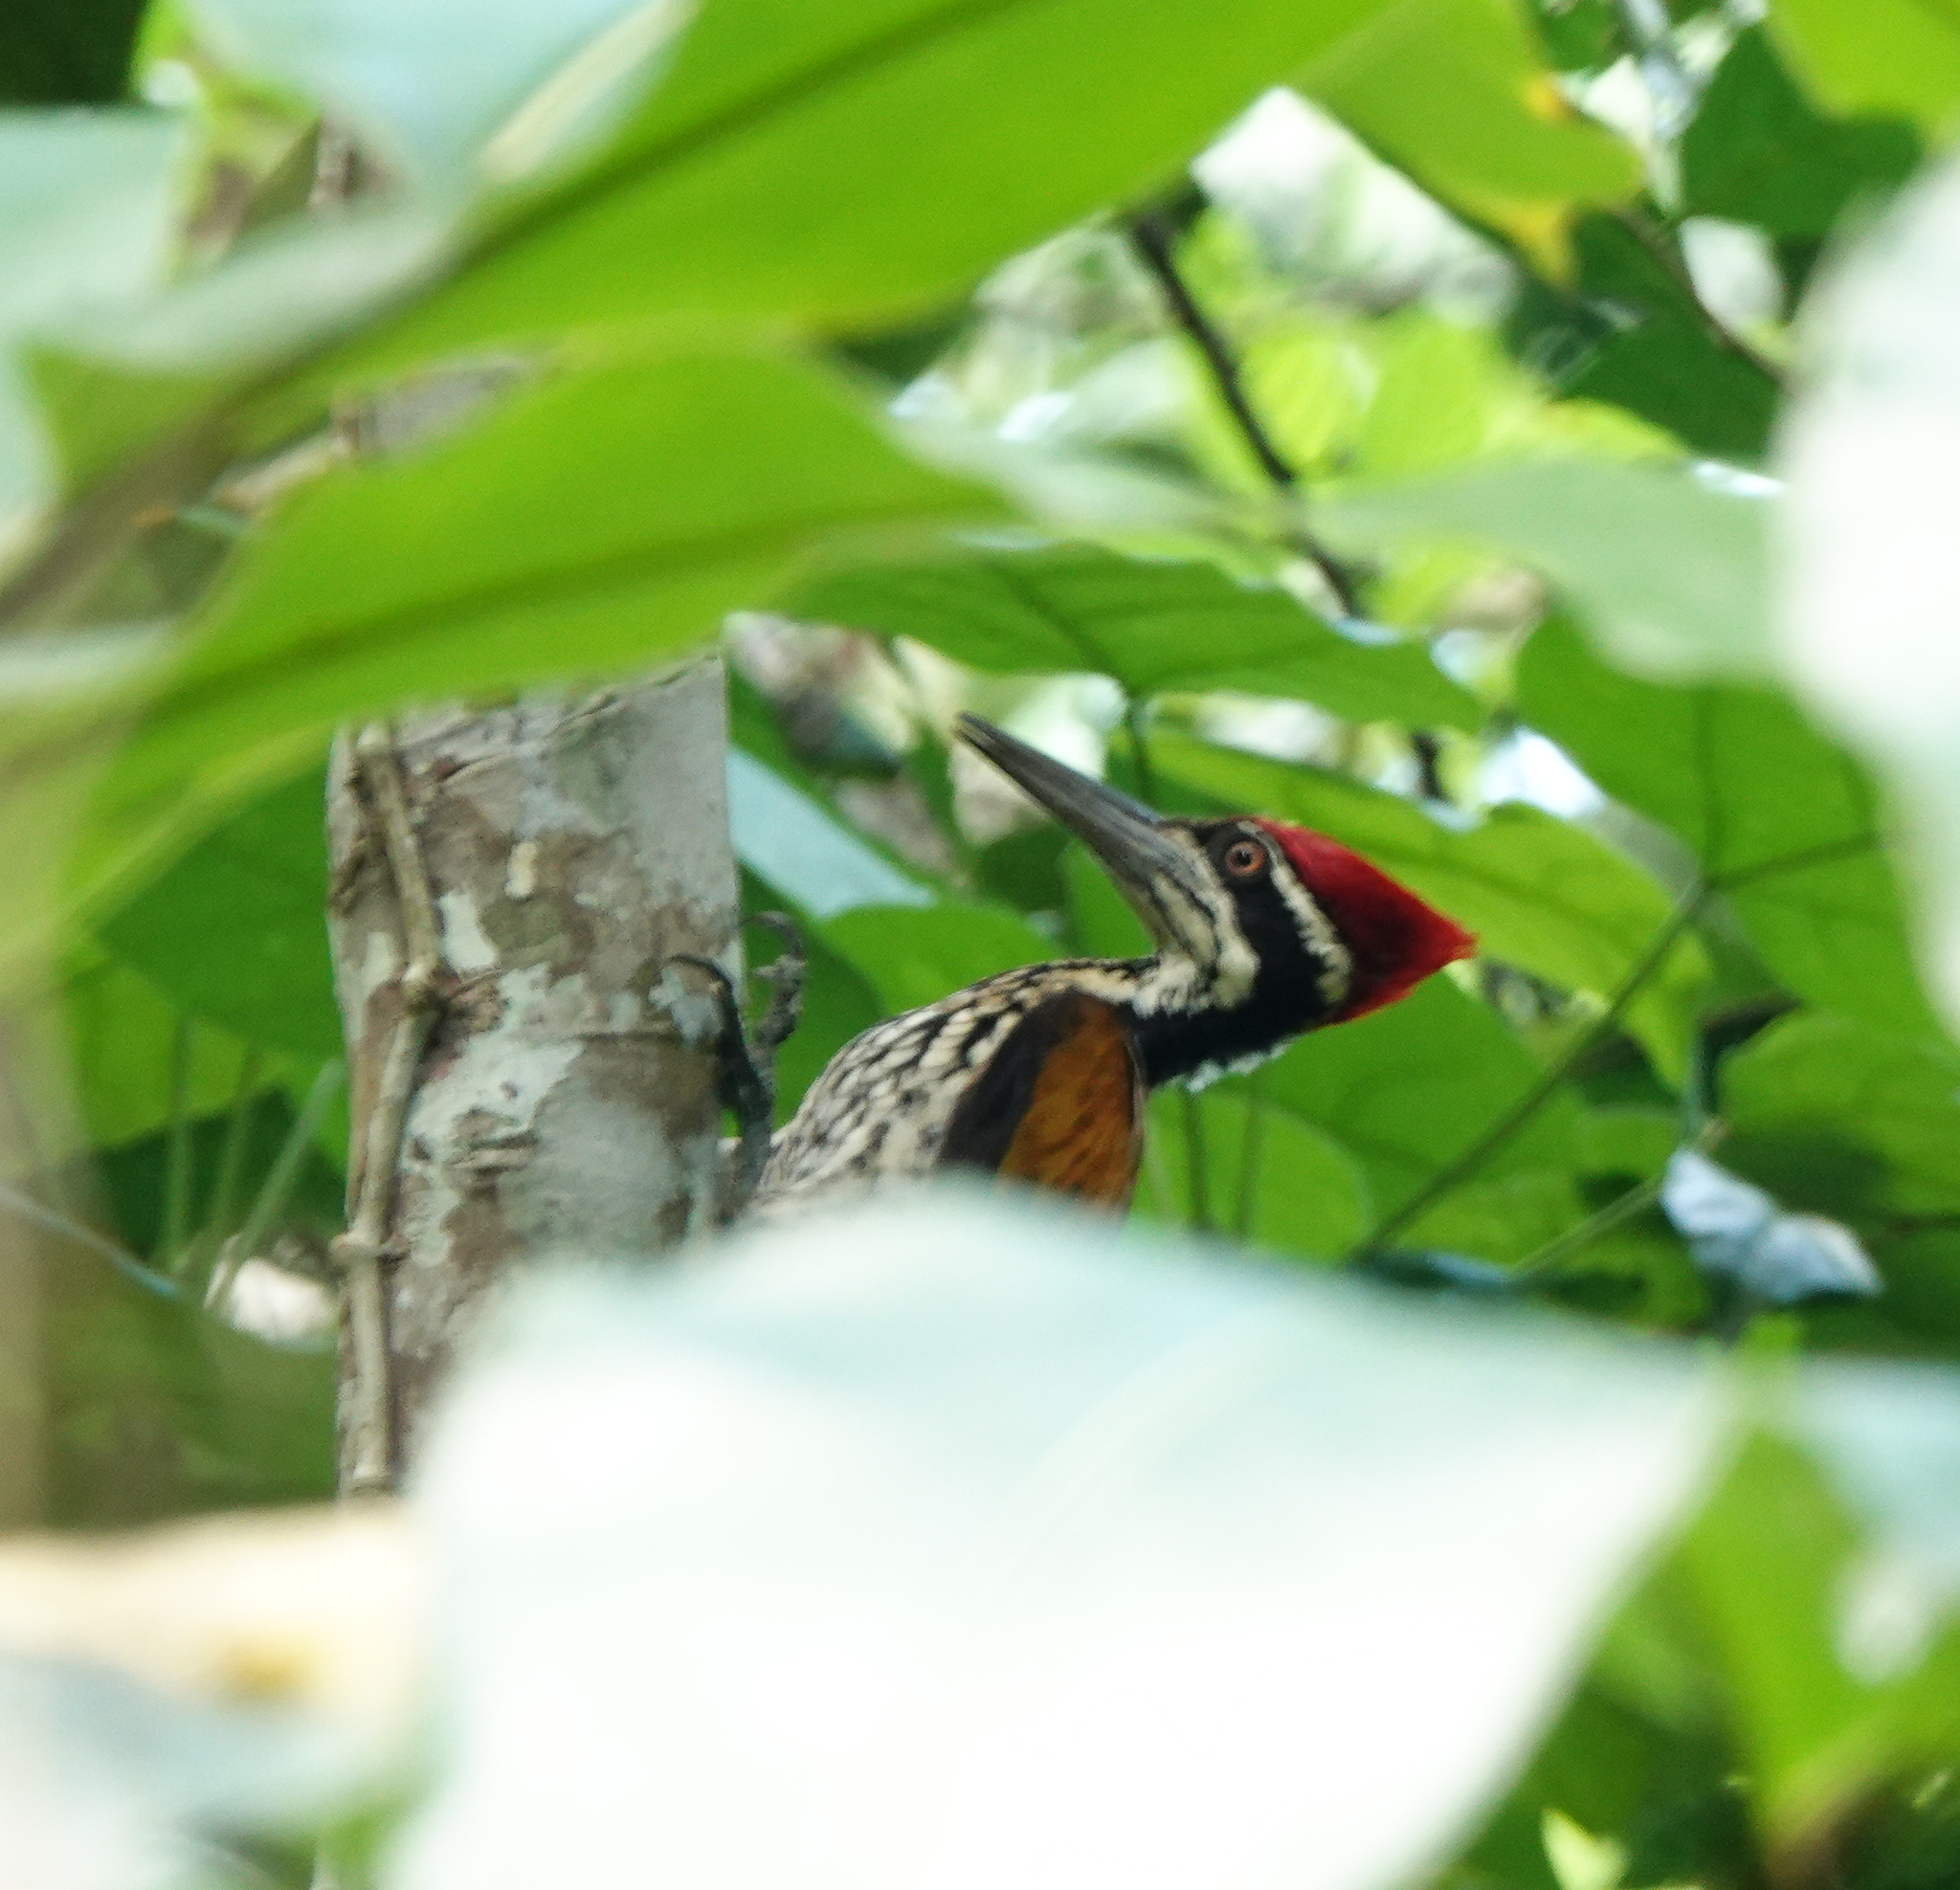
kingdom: Animalia
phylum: Chordata
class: Aves
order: Piciformes
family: Picidae
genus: Chrysocolaptes
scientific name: Chrysocolaptes guttacristatus
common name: Greater flameback
